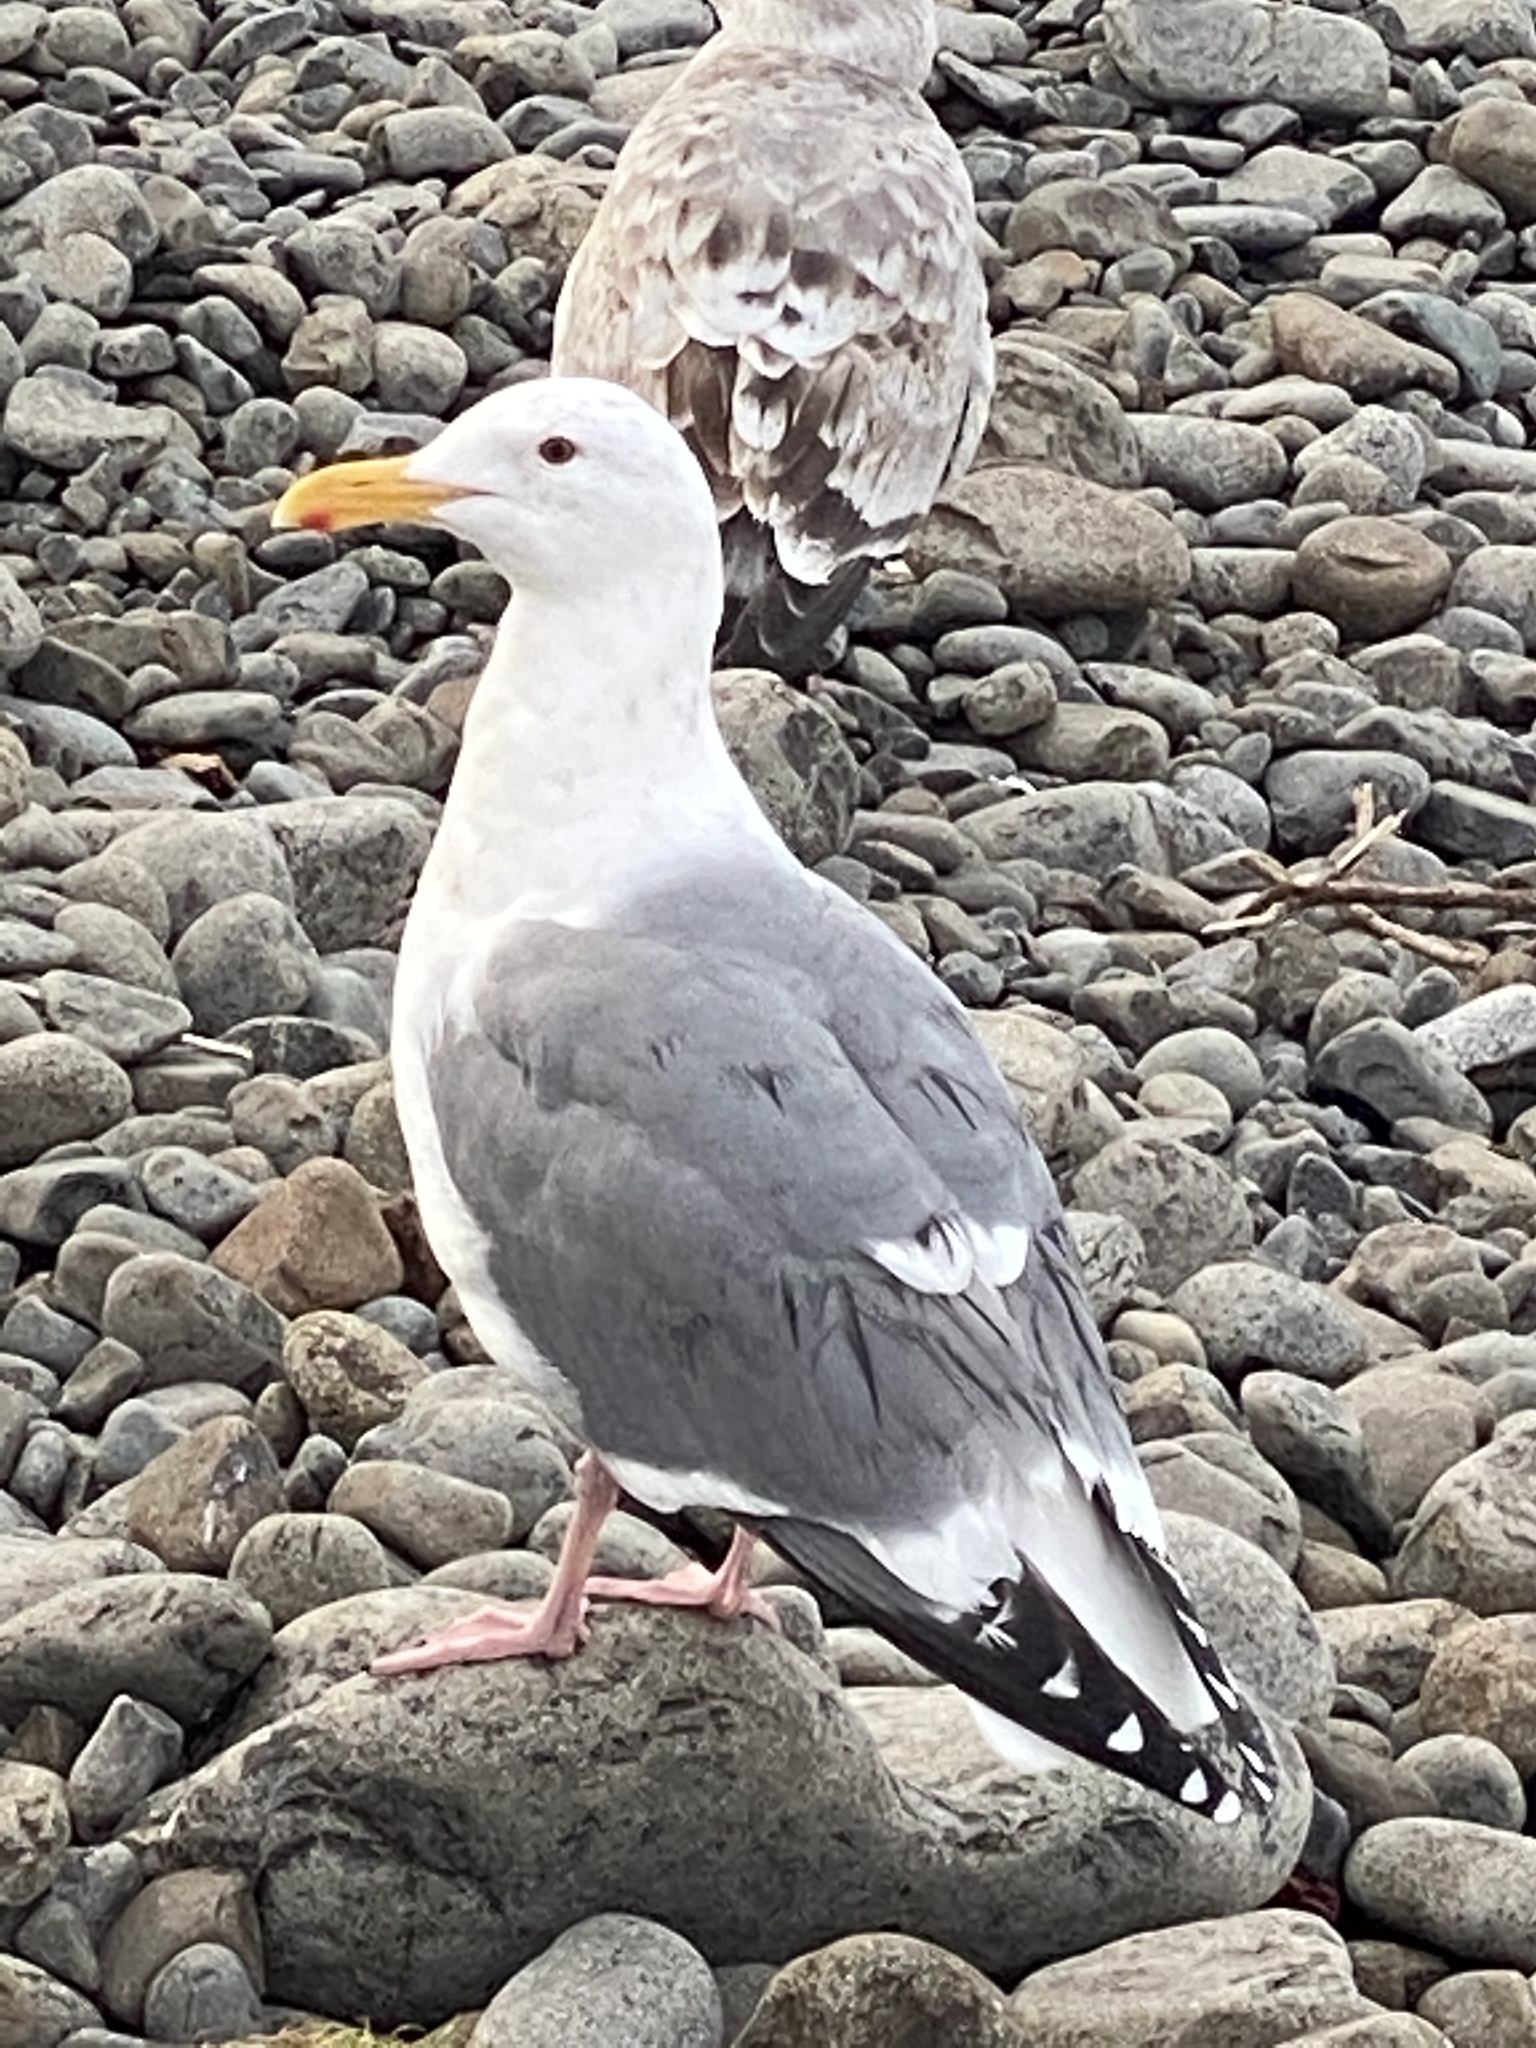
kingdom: Animalia
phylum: Chordata
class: Aves
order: Charadriiformes
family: Laridae
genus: Larus
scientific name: Larus occidentalis
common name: Western gull
